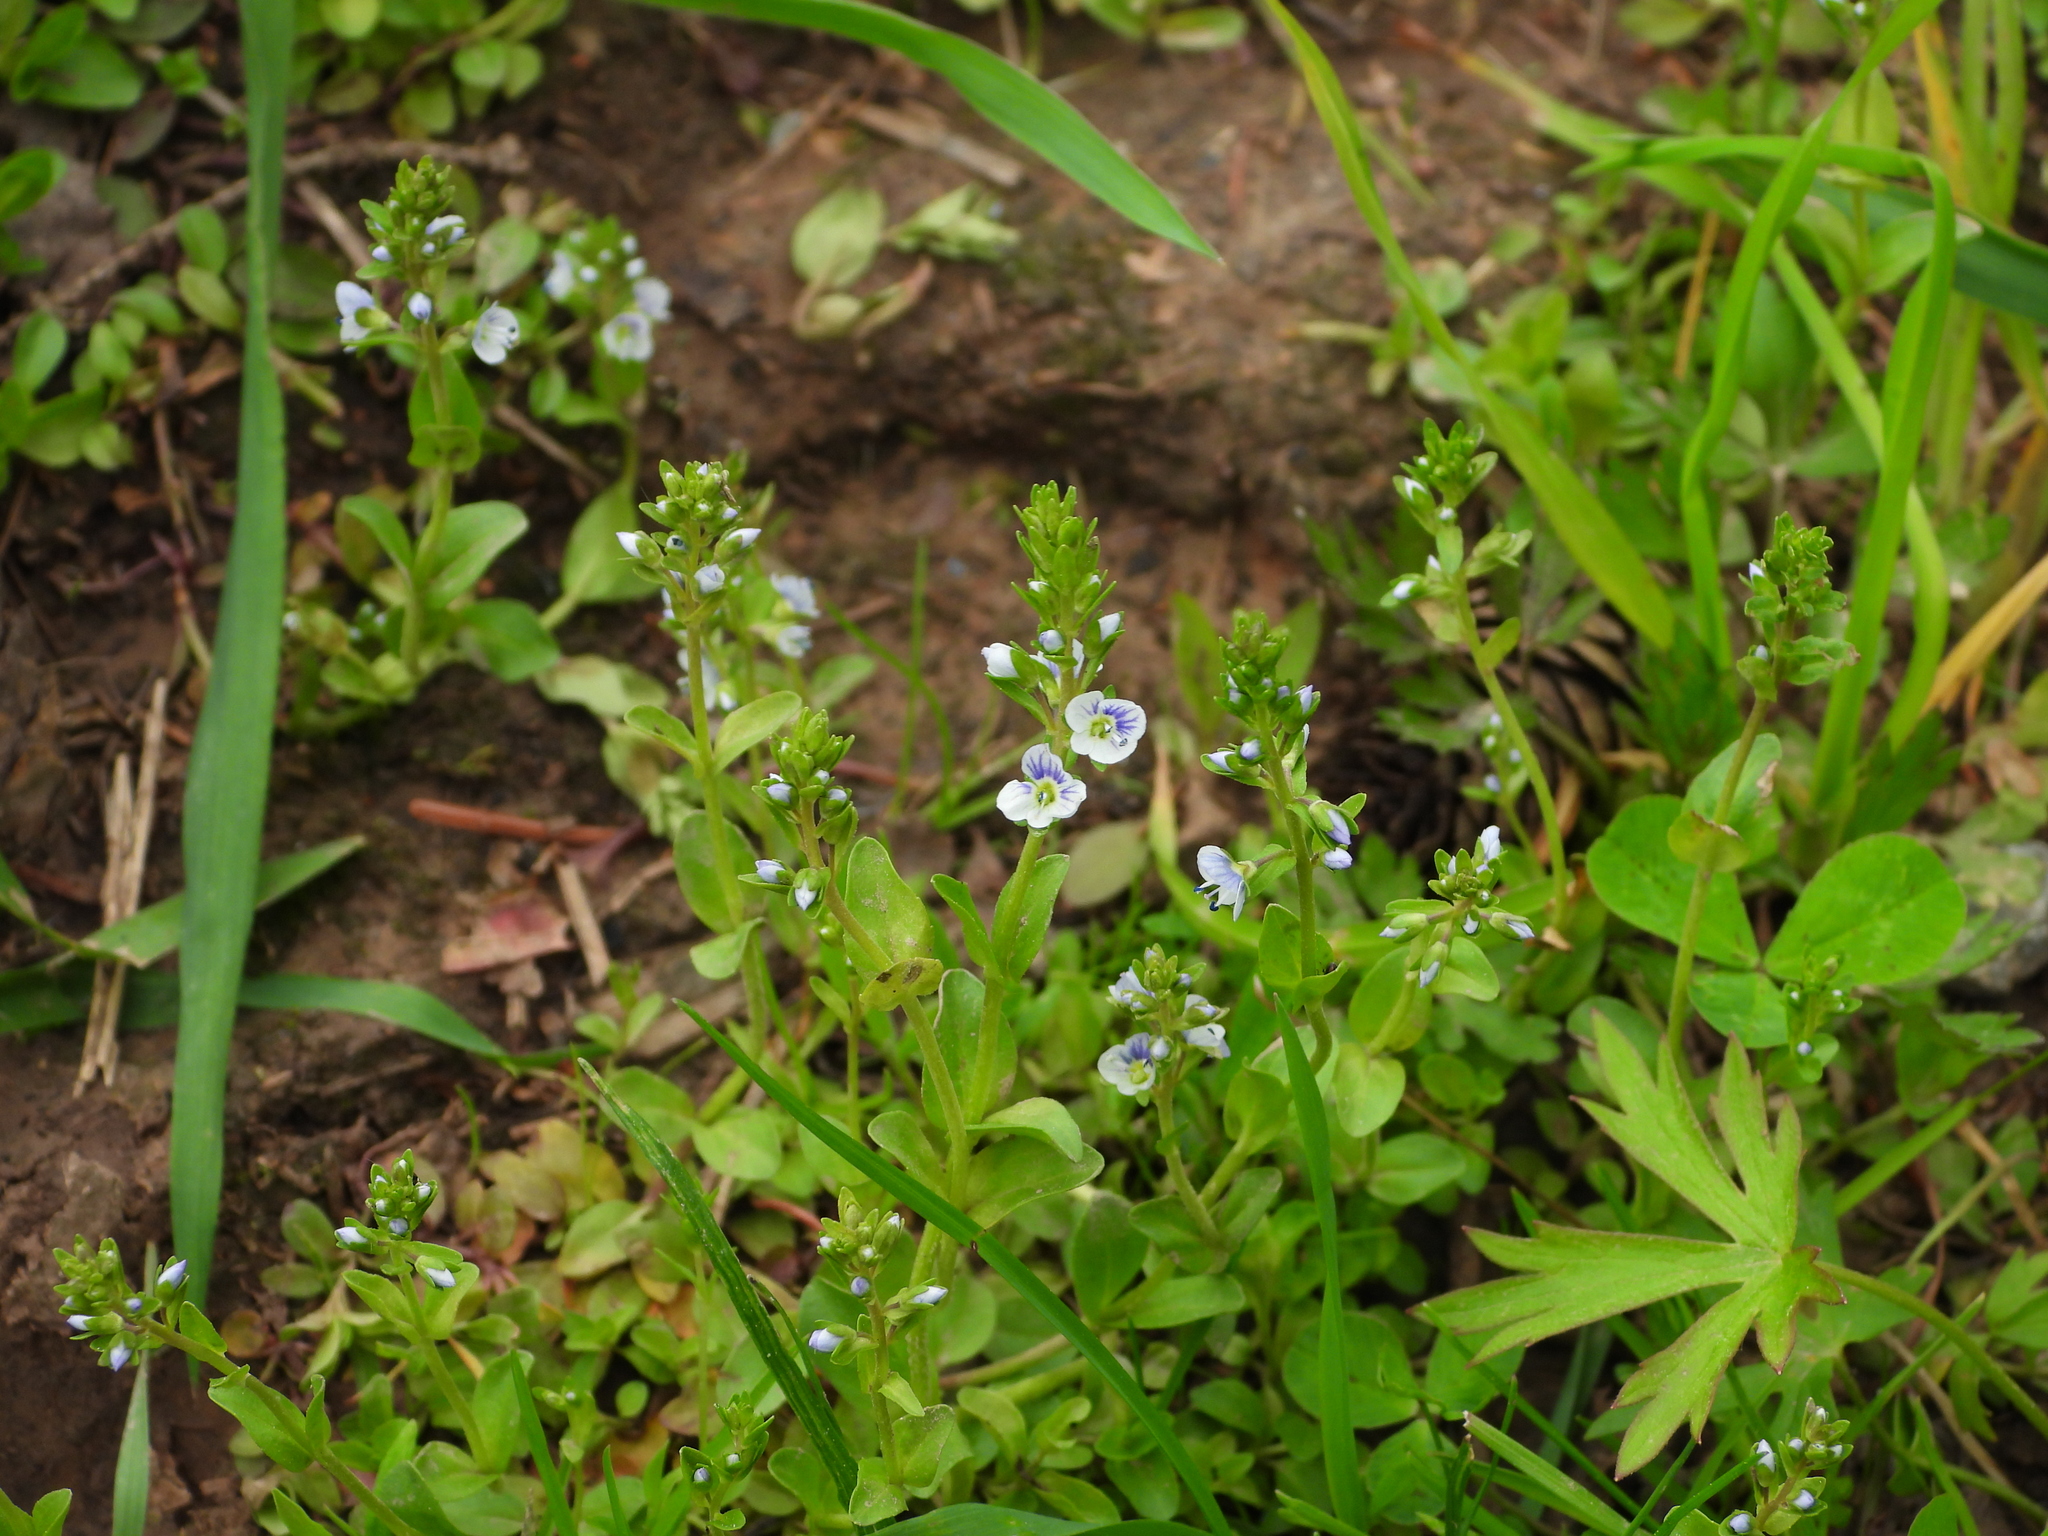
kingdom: Plantae
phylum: Tracheophyta
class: Magnoliopsida
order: Lamiales
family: Plantaginaceae
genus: Veronica
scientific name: Veronica serpyllifolia
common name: Thyme-leaved speedwell
